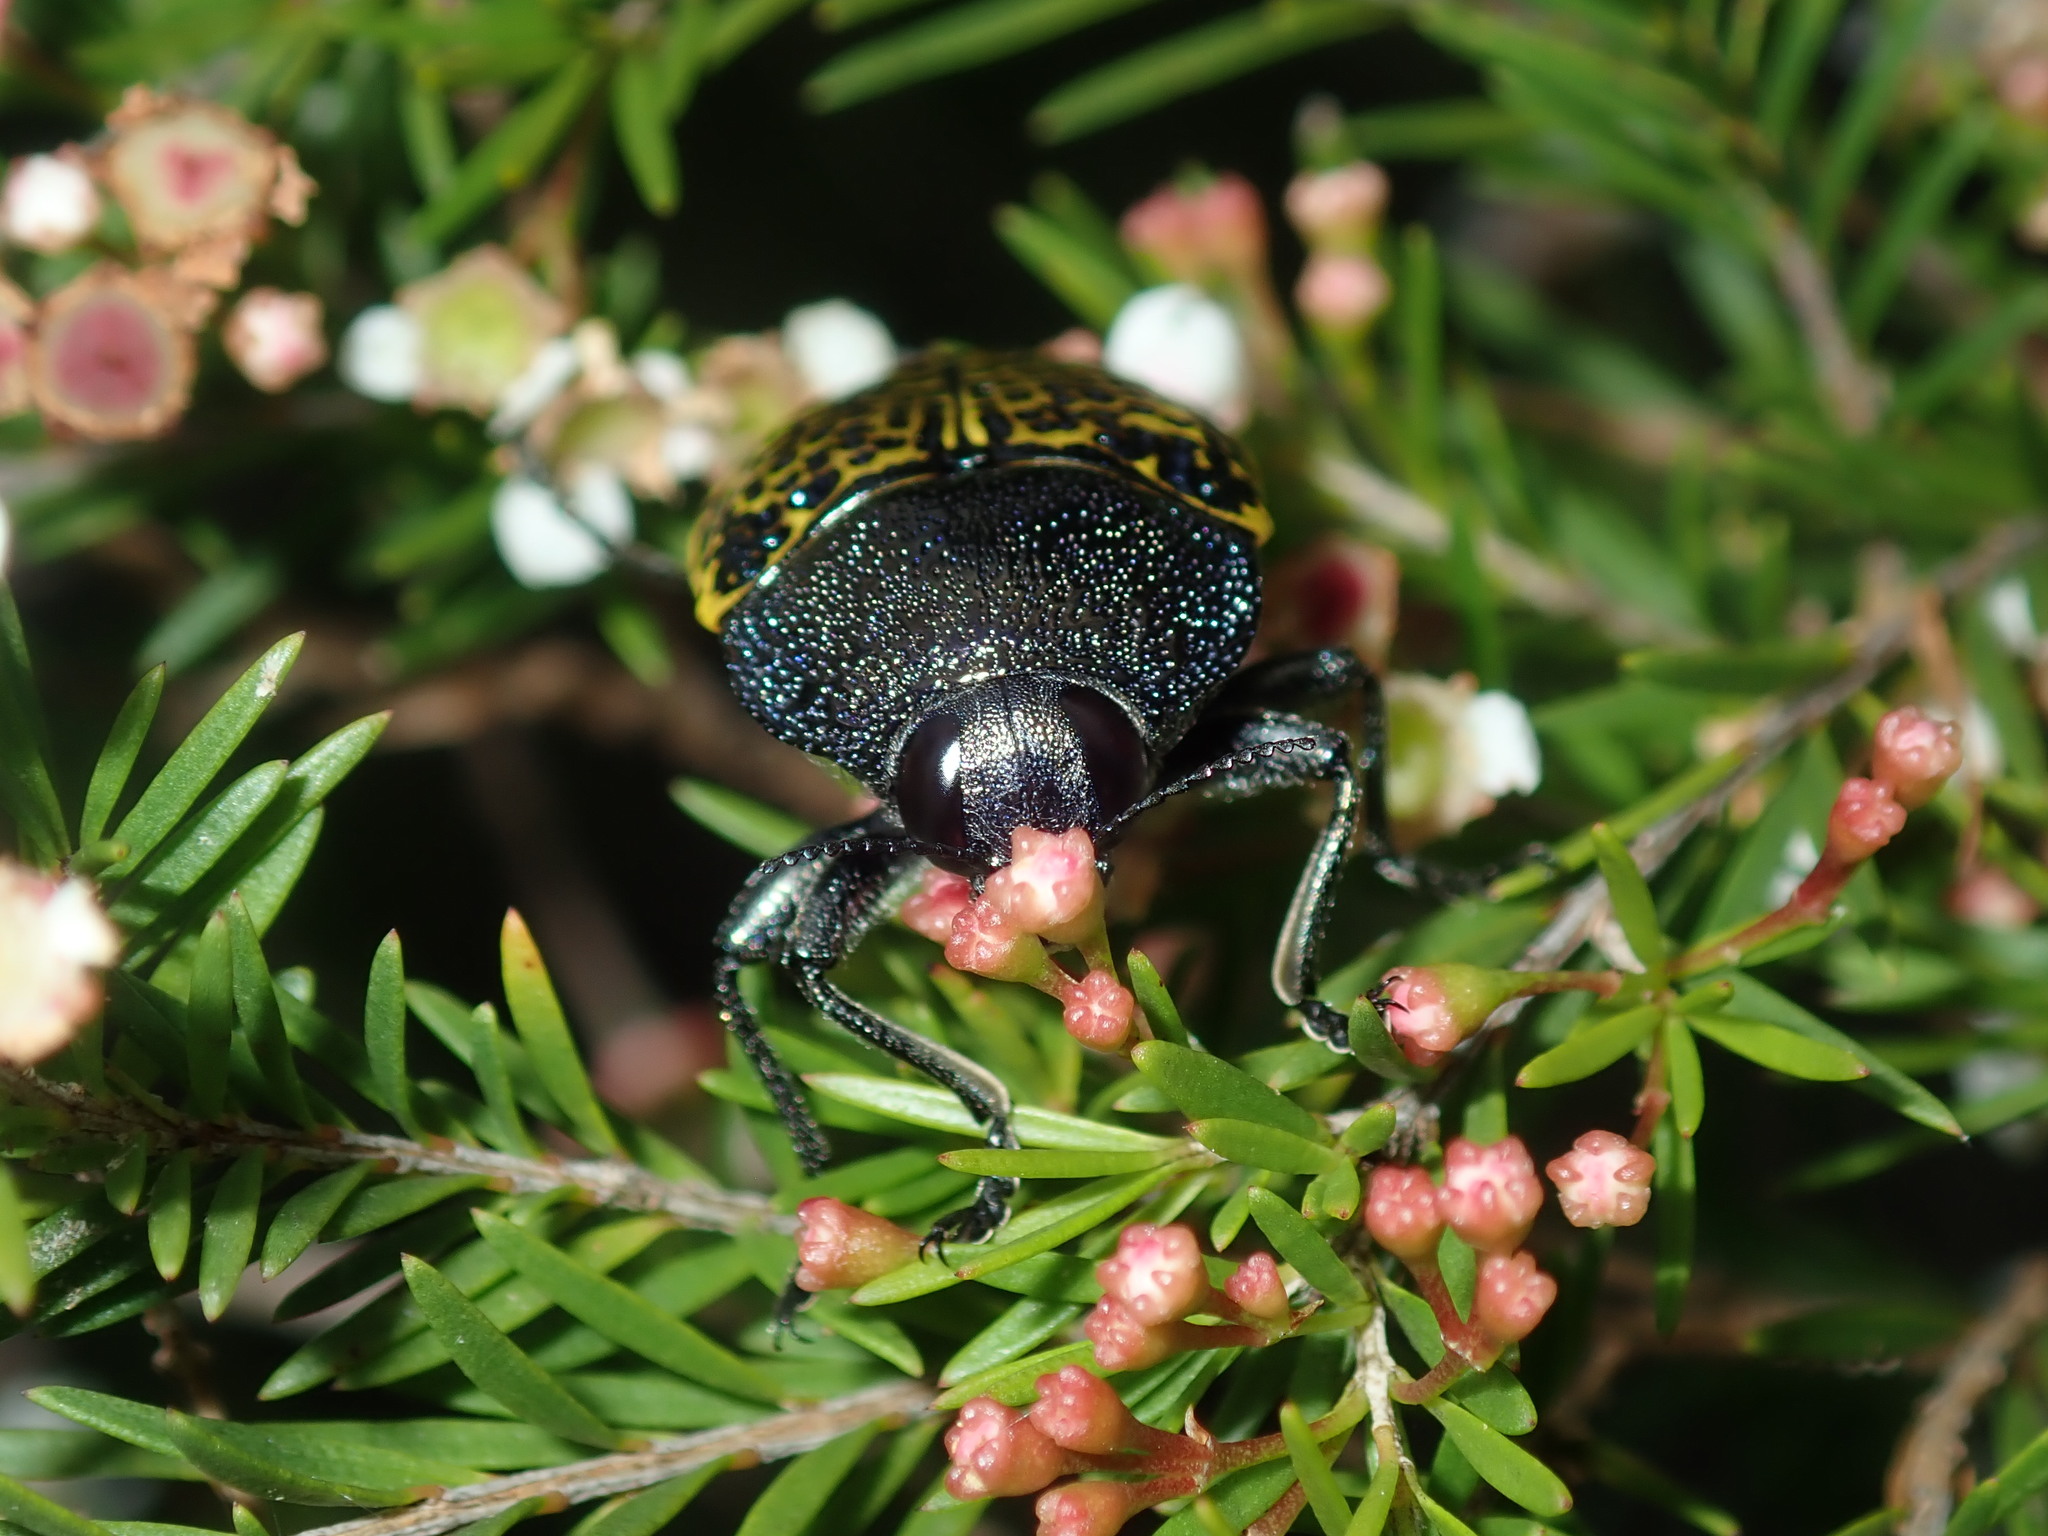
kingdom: Animalia
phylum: Arthropoda
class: Insecta
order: Coleoptera
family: Buprestidae
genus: Stigmodera
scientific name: Stigmodera macularia
